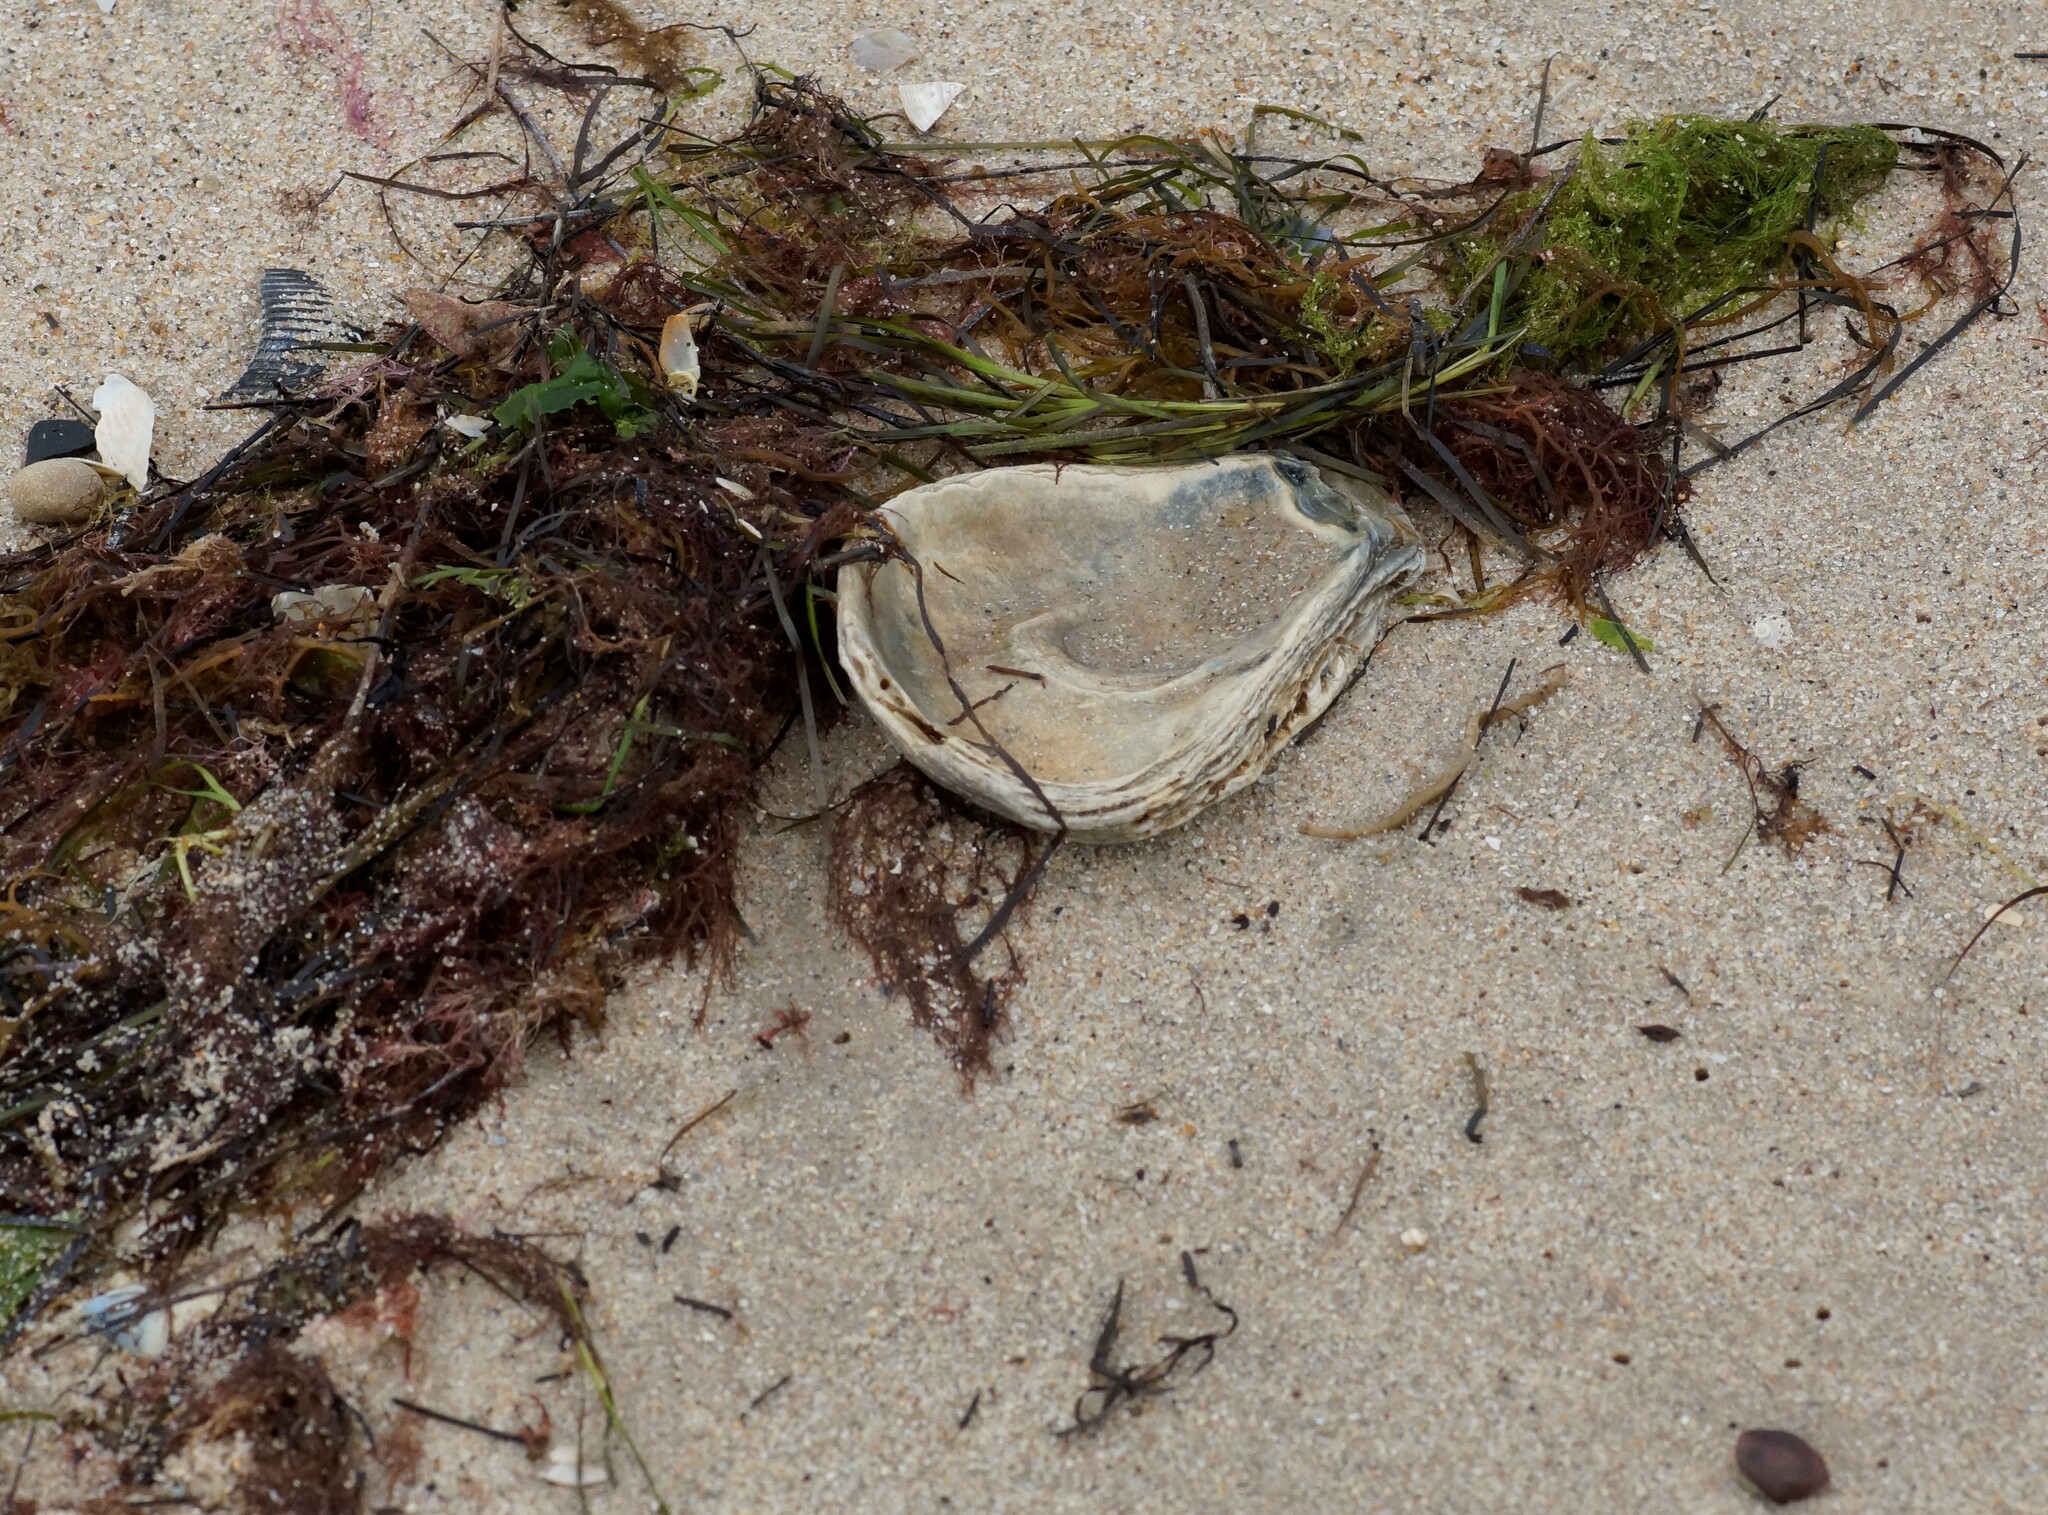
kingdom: Animalia
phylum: Mollusca
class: Bivalvia
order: Ostreida
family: Ostreidae
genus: Ostrea
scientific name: Ostrea angasi
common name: Angasi oyster
